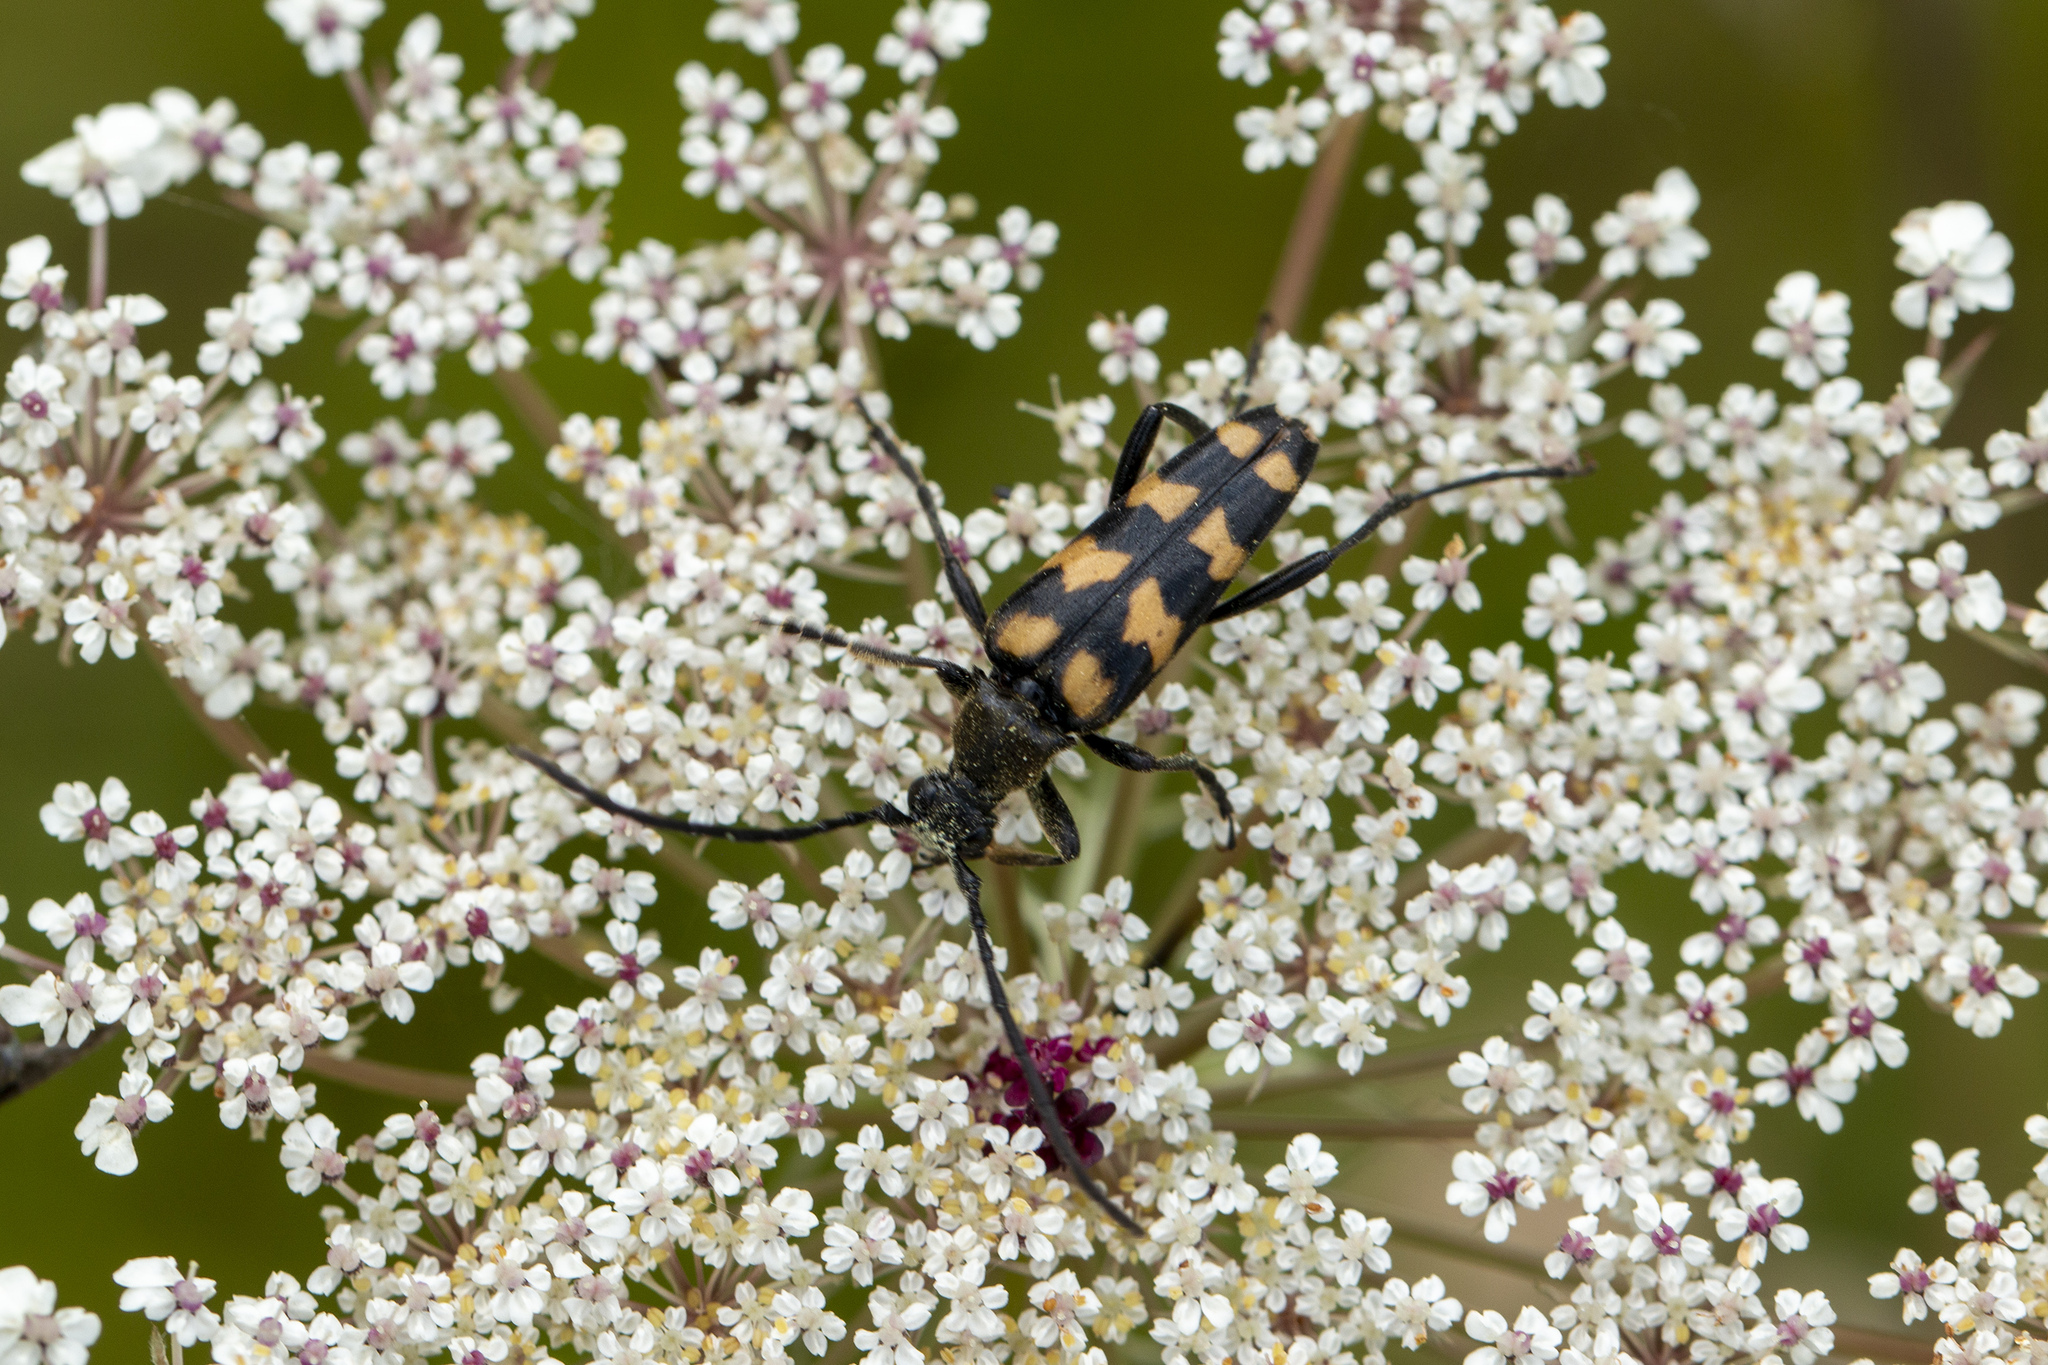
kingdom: Animalia
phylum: Arthropoda
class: Insecta
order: Coleoptera
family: Cerambycidae
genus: Leptura
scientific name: Leptura quadrifasciata
